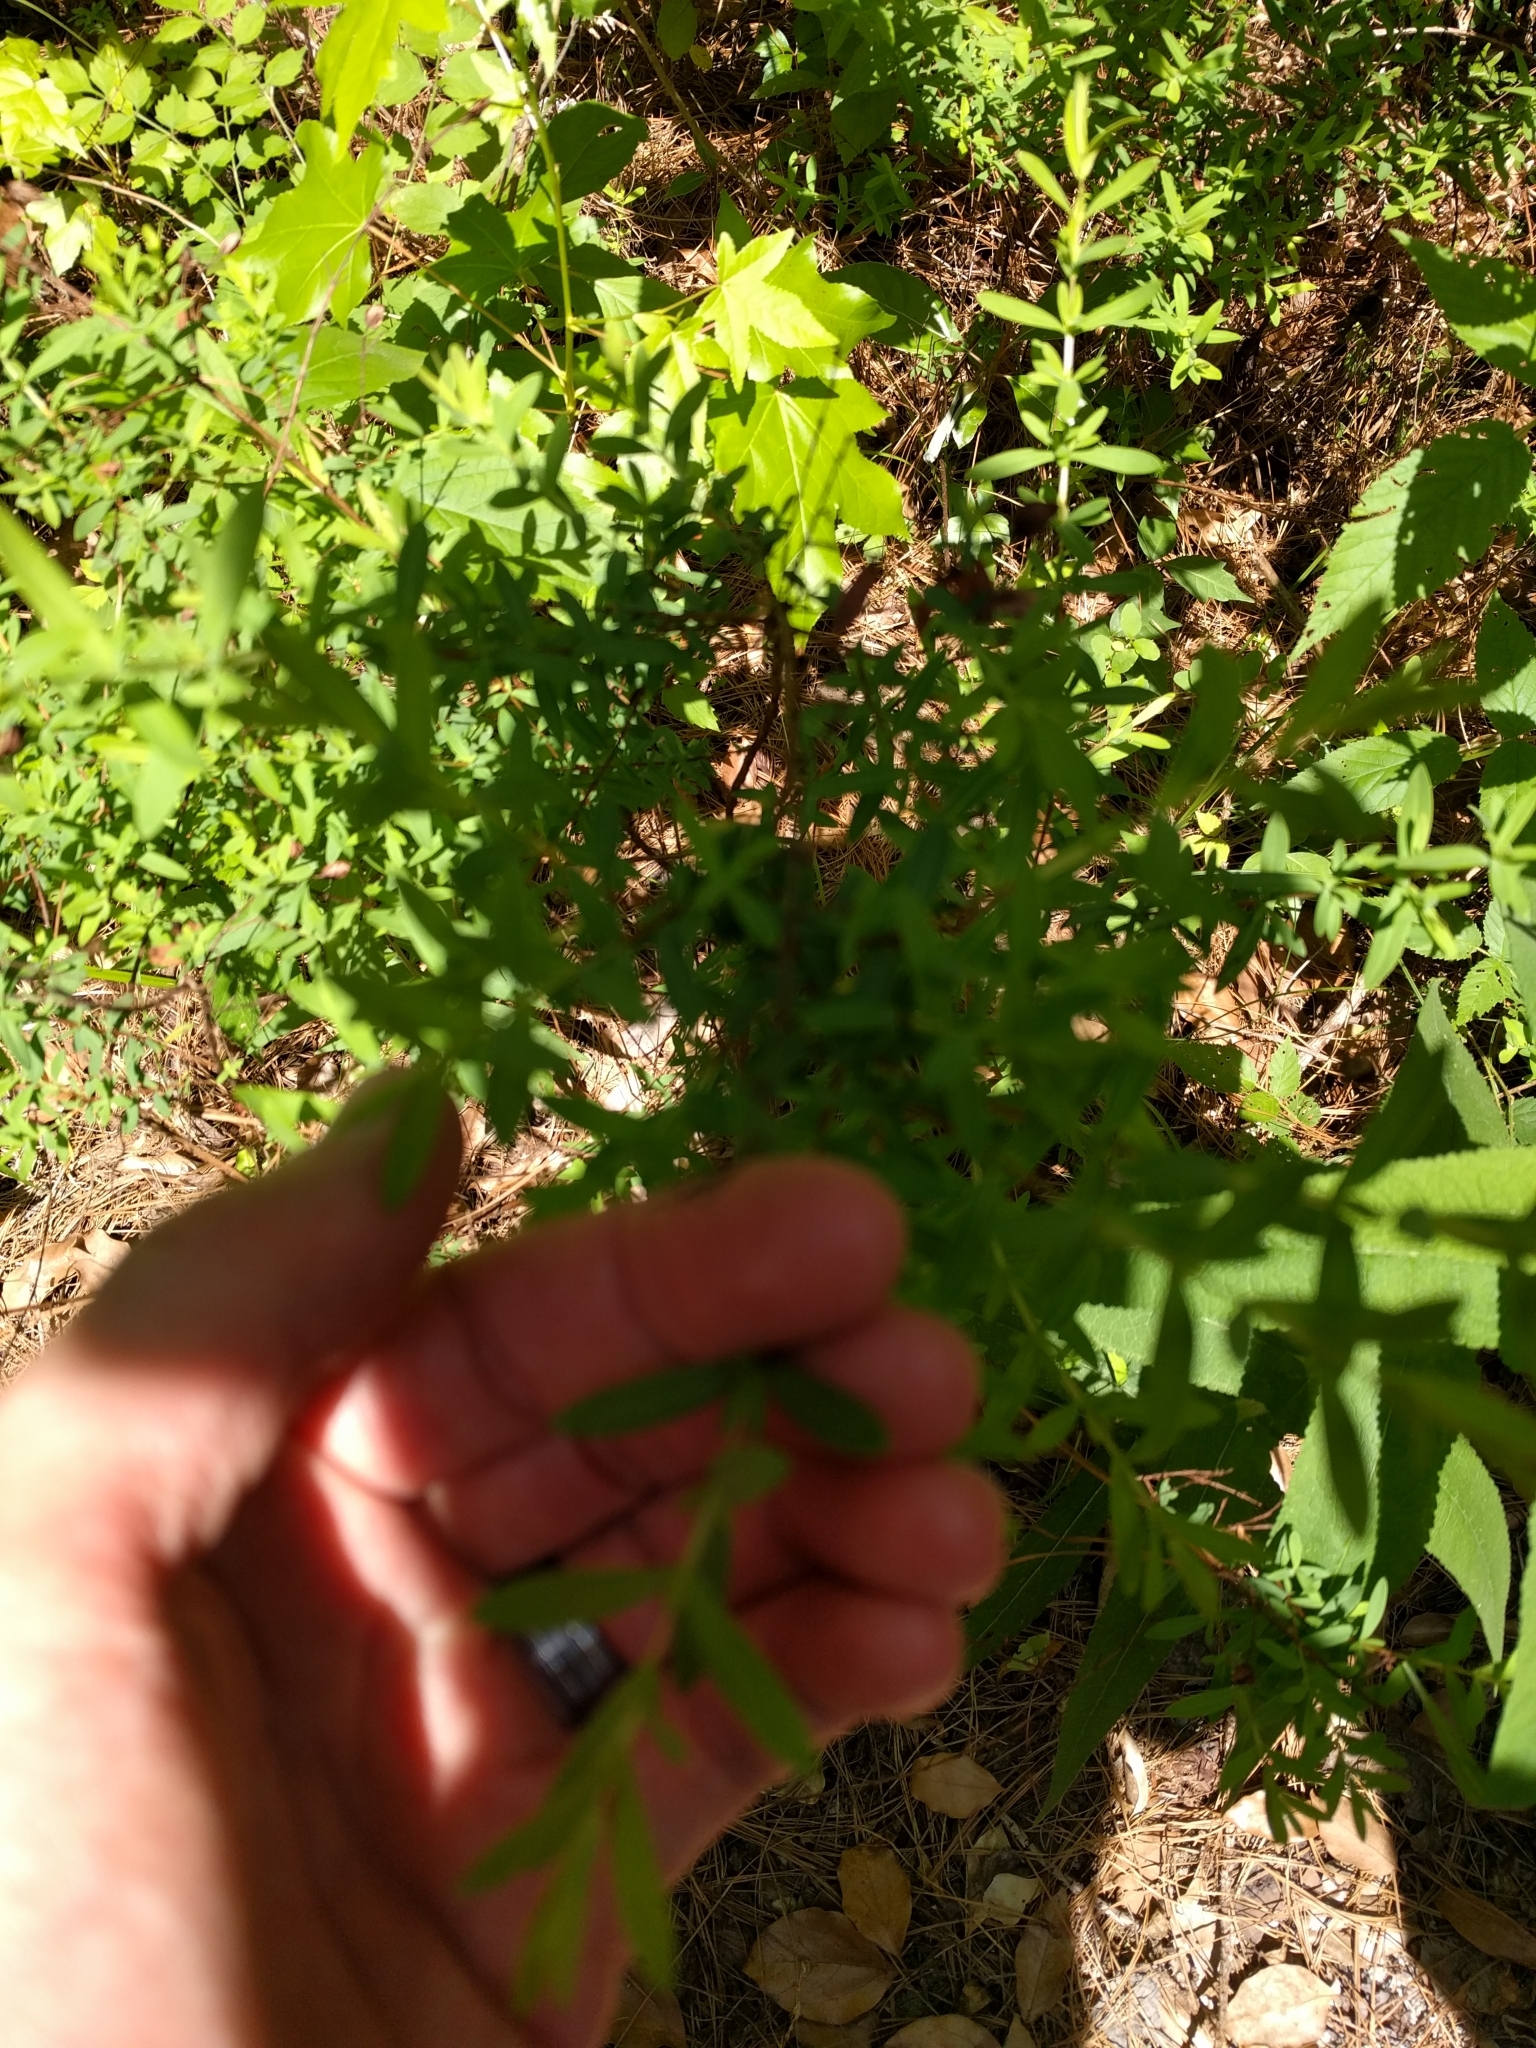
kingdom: Plantae
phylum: Tracheophyta
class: Magnoliopsida
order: Malpighiales
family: Hypericaceae
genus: Hypericum
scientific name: Hypericum hypericoides
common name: St. andrew's cross
